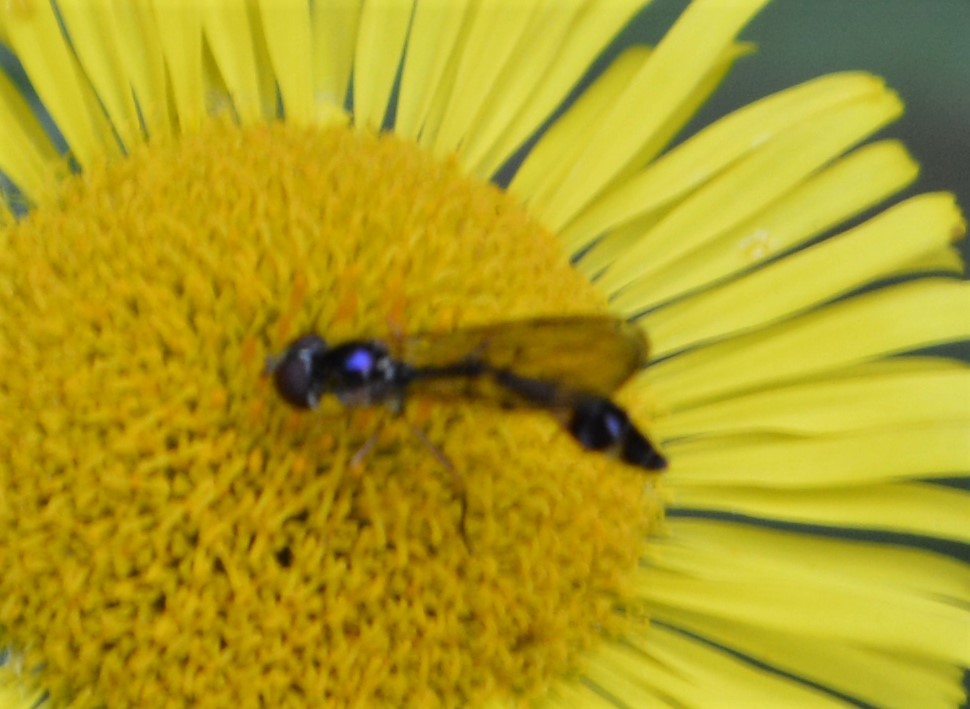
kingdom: Animalia
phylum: Arthropoda
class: Insecta
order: Diptera
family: Syrphidae
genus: Baccha
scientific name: Baccha elongata
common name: Common dainty
